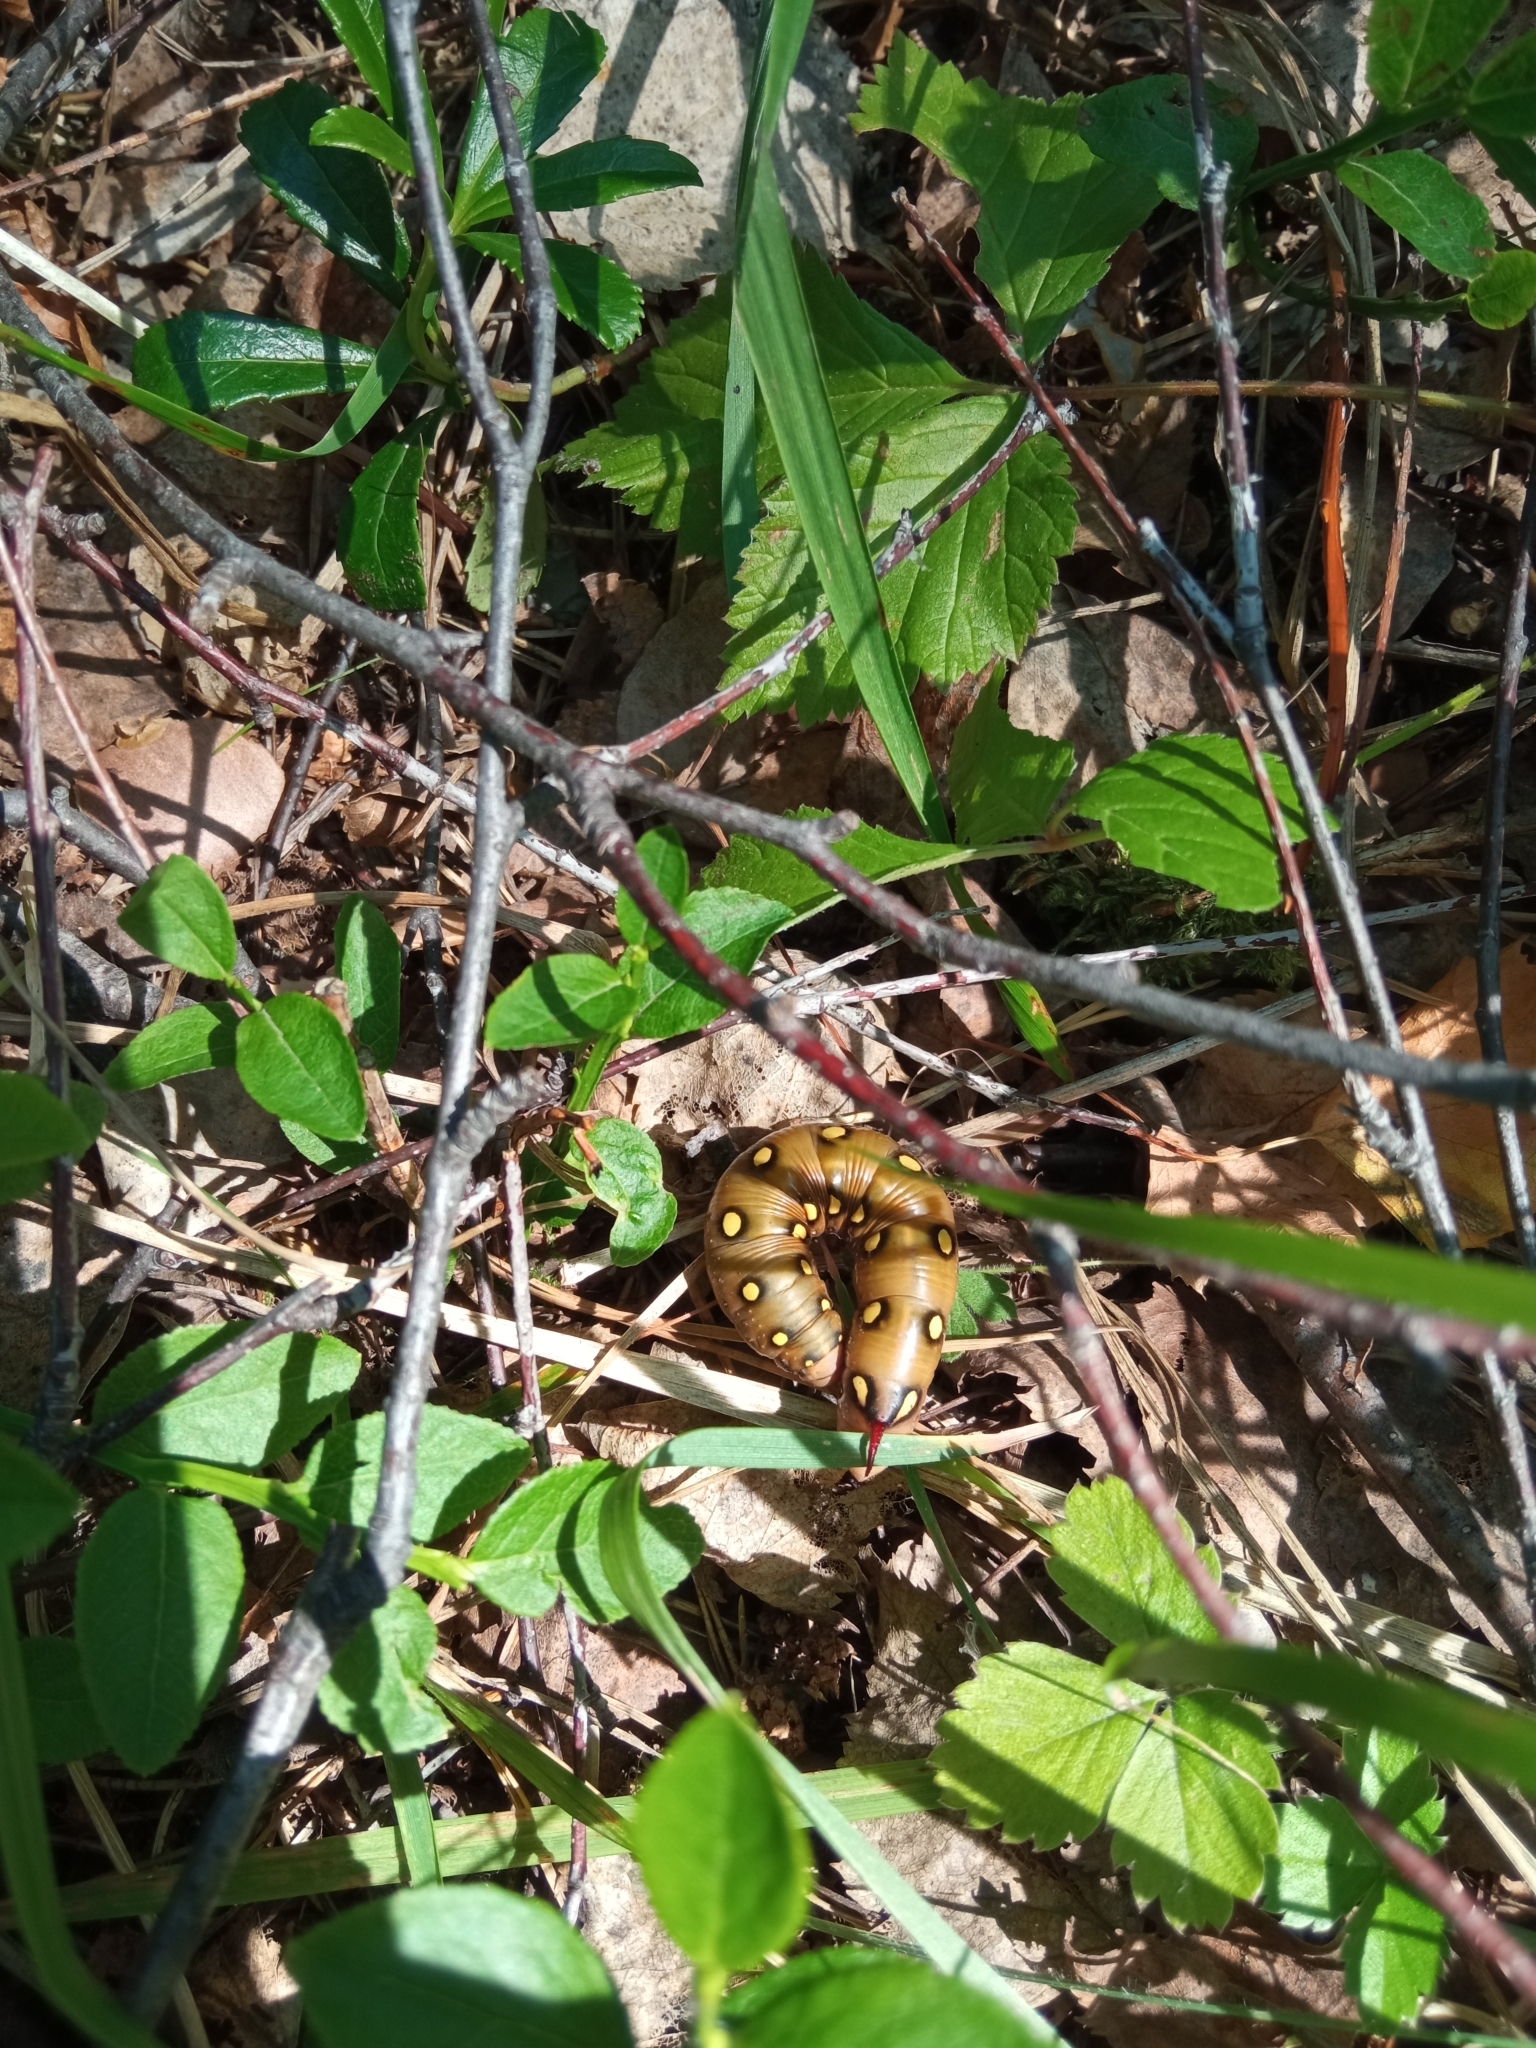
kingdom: Animalia
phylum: Arthropoda
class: Insecta
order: Lepidoptera
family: Sphingidae
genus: Hyles
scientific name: Hyles gallii
